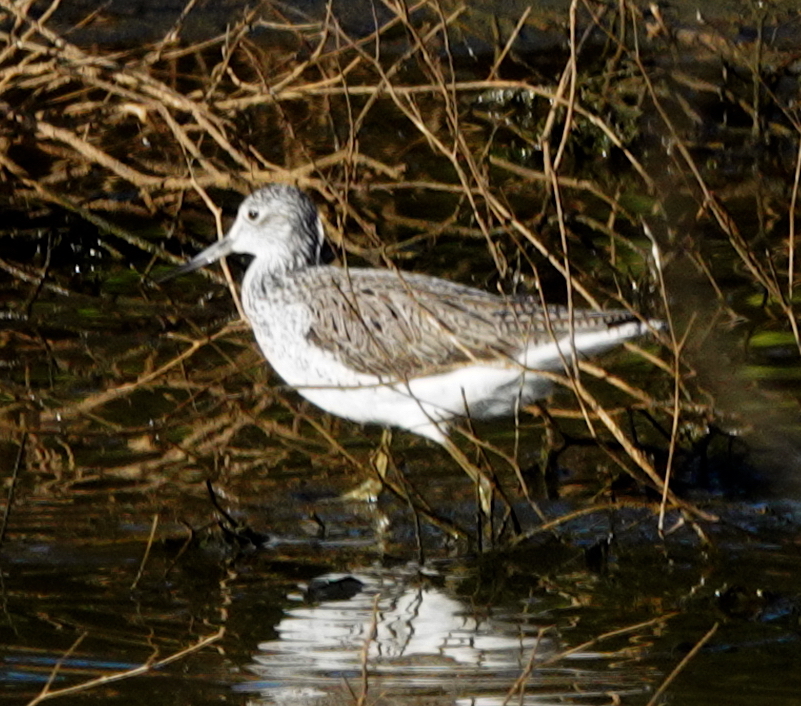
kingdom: Animalia
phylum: Chordata
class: Aves
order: Charadriiformes
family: Scolopacidae
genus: Tringa
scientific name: Tringa nebularia
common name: Common greenshank
